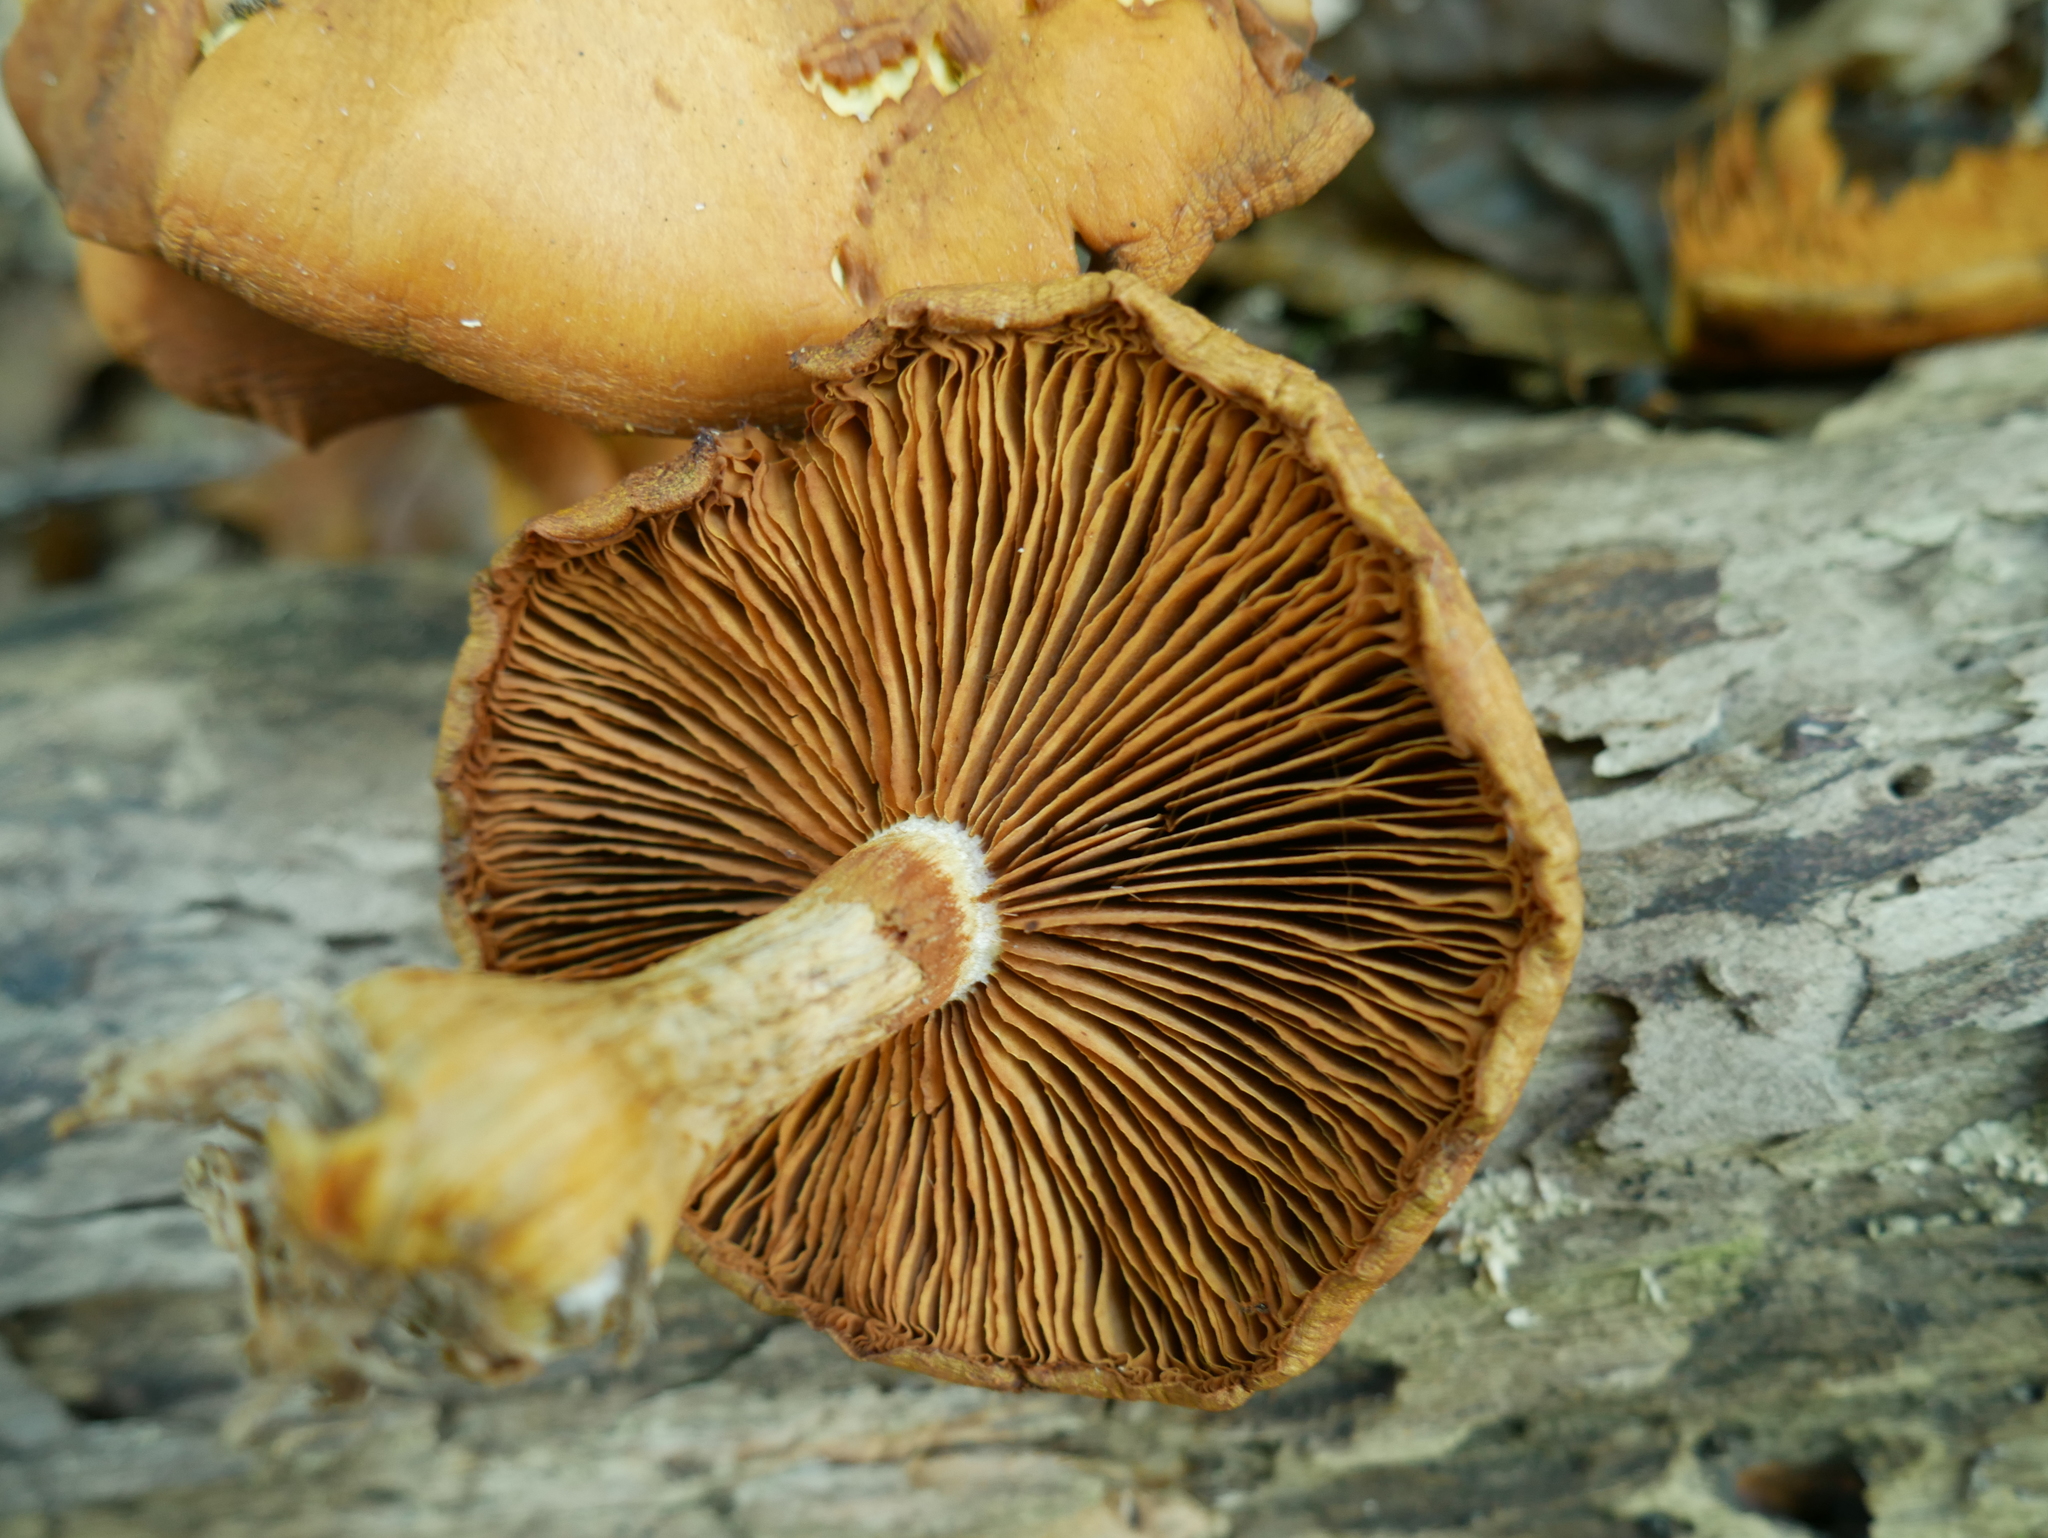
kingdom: Fungi
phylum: Basidiomycota
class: Agaricomycetes
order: Agaricales
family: Hymenogastraceae
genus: Gymnopilus
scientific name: Gymnopilus luteus
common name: Yellow gymnopilus
